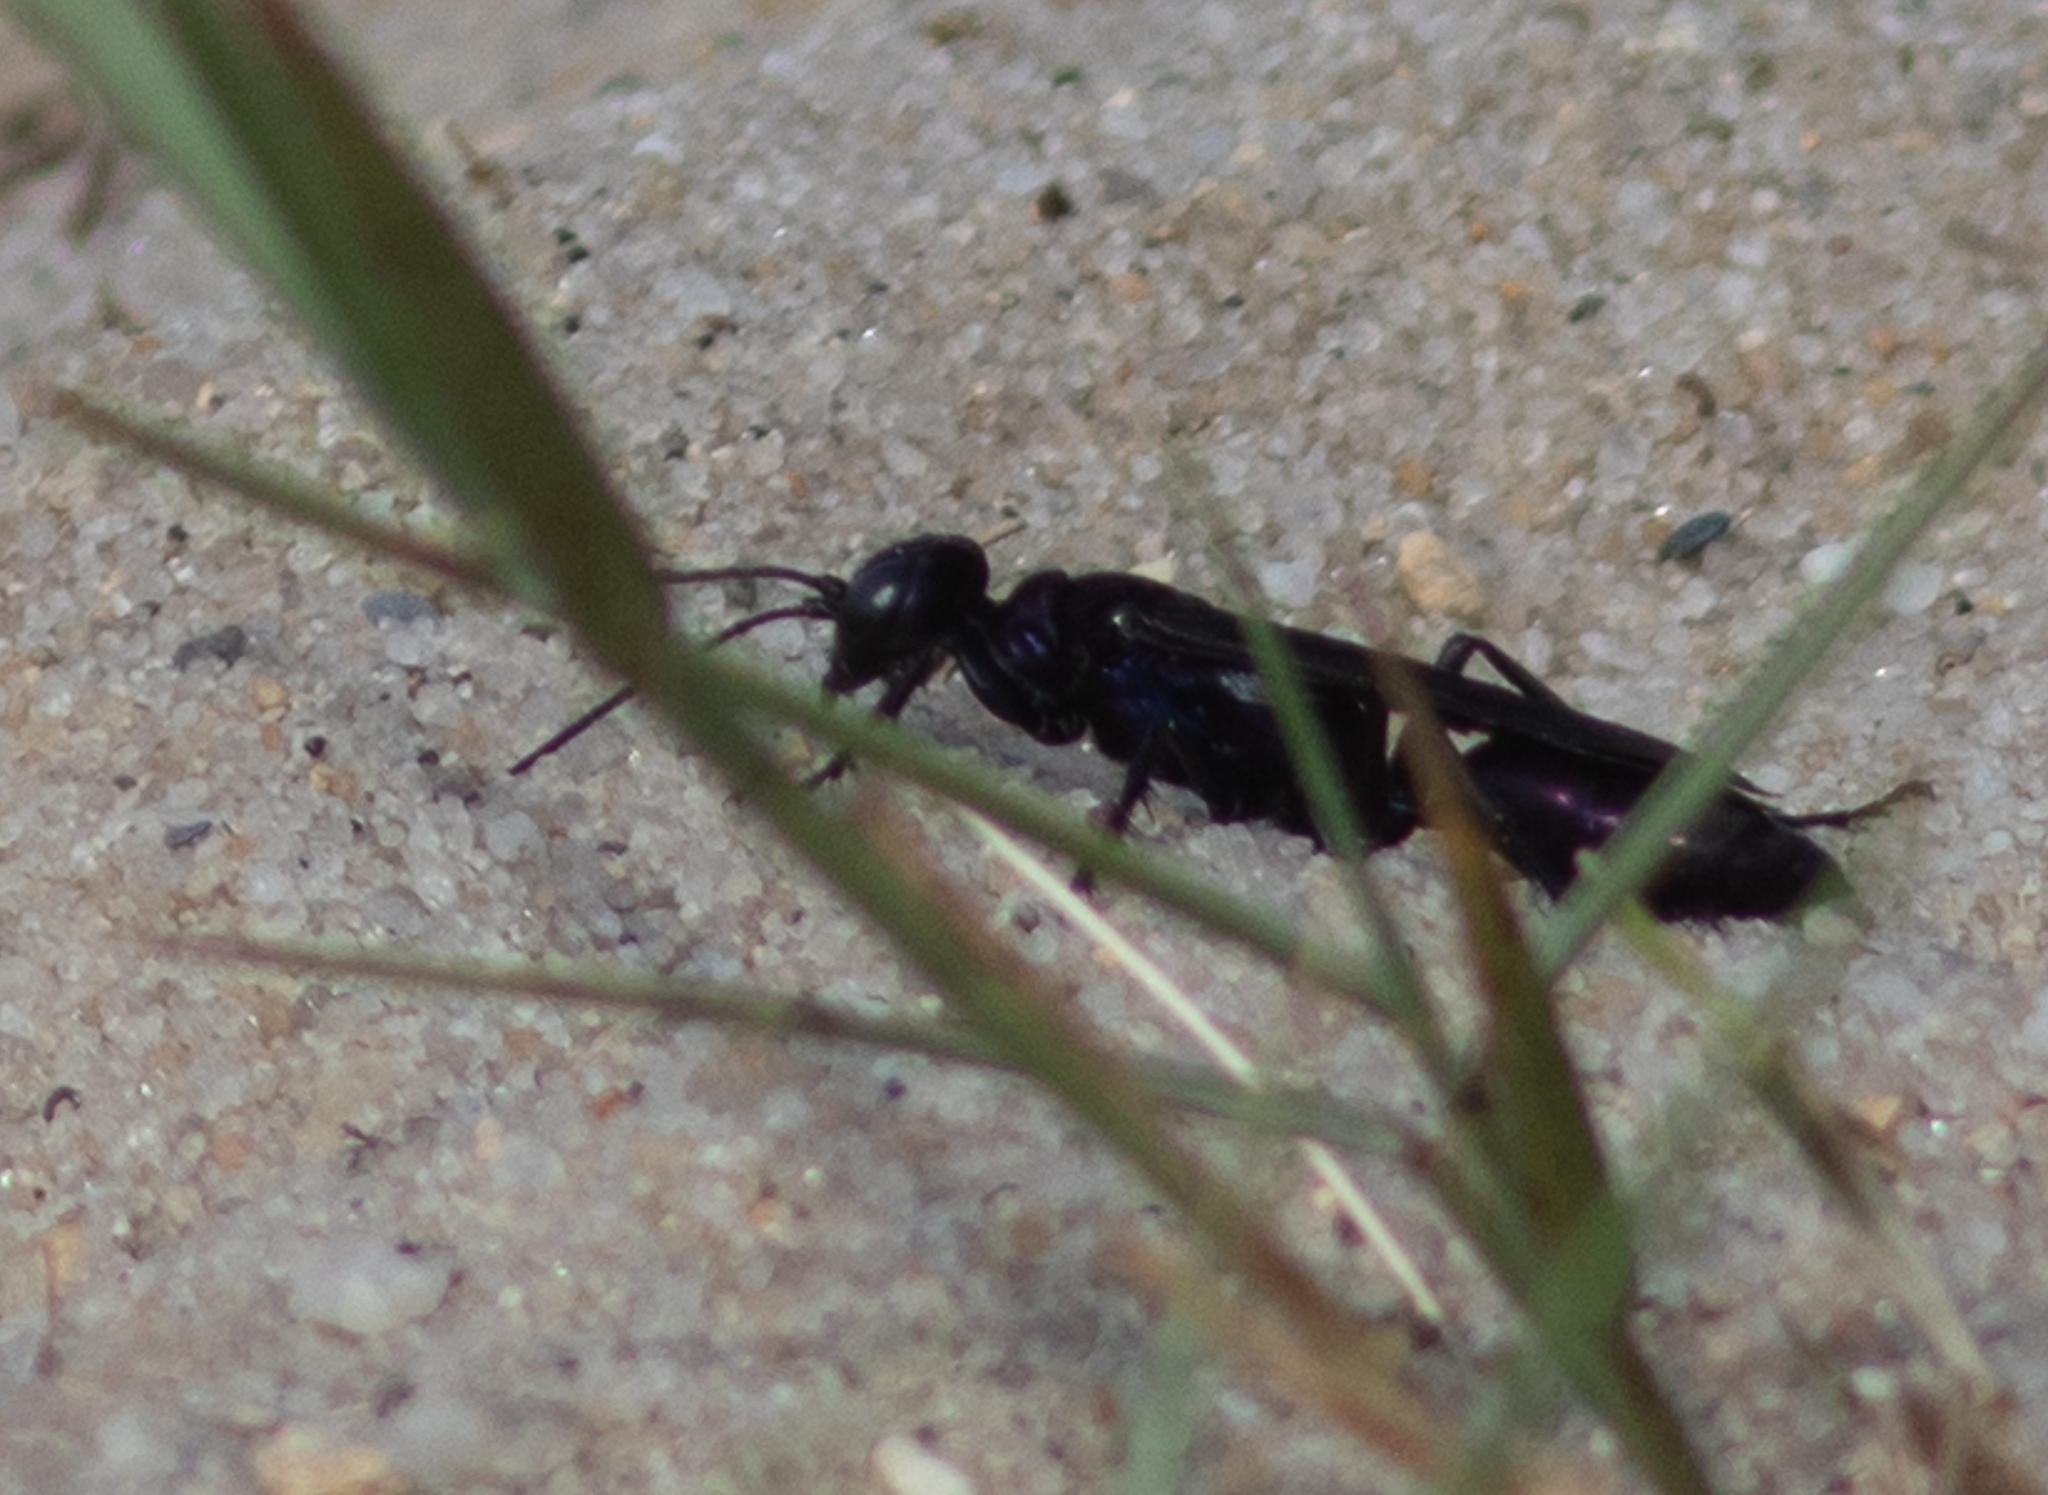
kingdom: Animalia
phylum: Arthropoda
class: Insecta
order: Hymenoptera
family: Sphecidae
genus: Chlorion
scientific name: Chlorion aerarium
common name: Steel-blue cricket hunter
